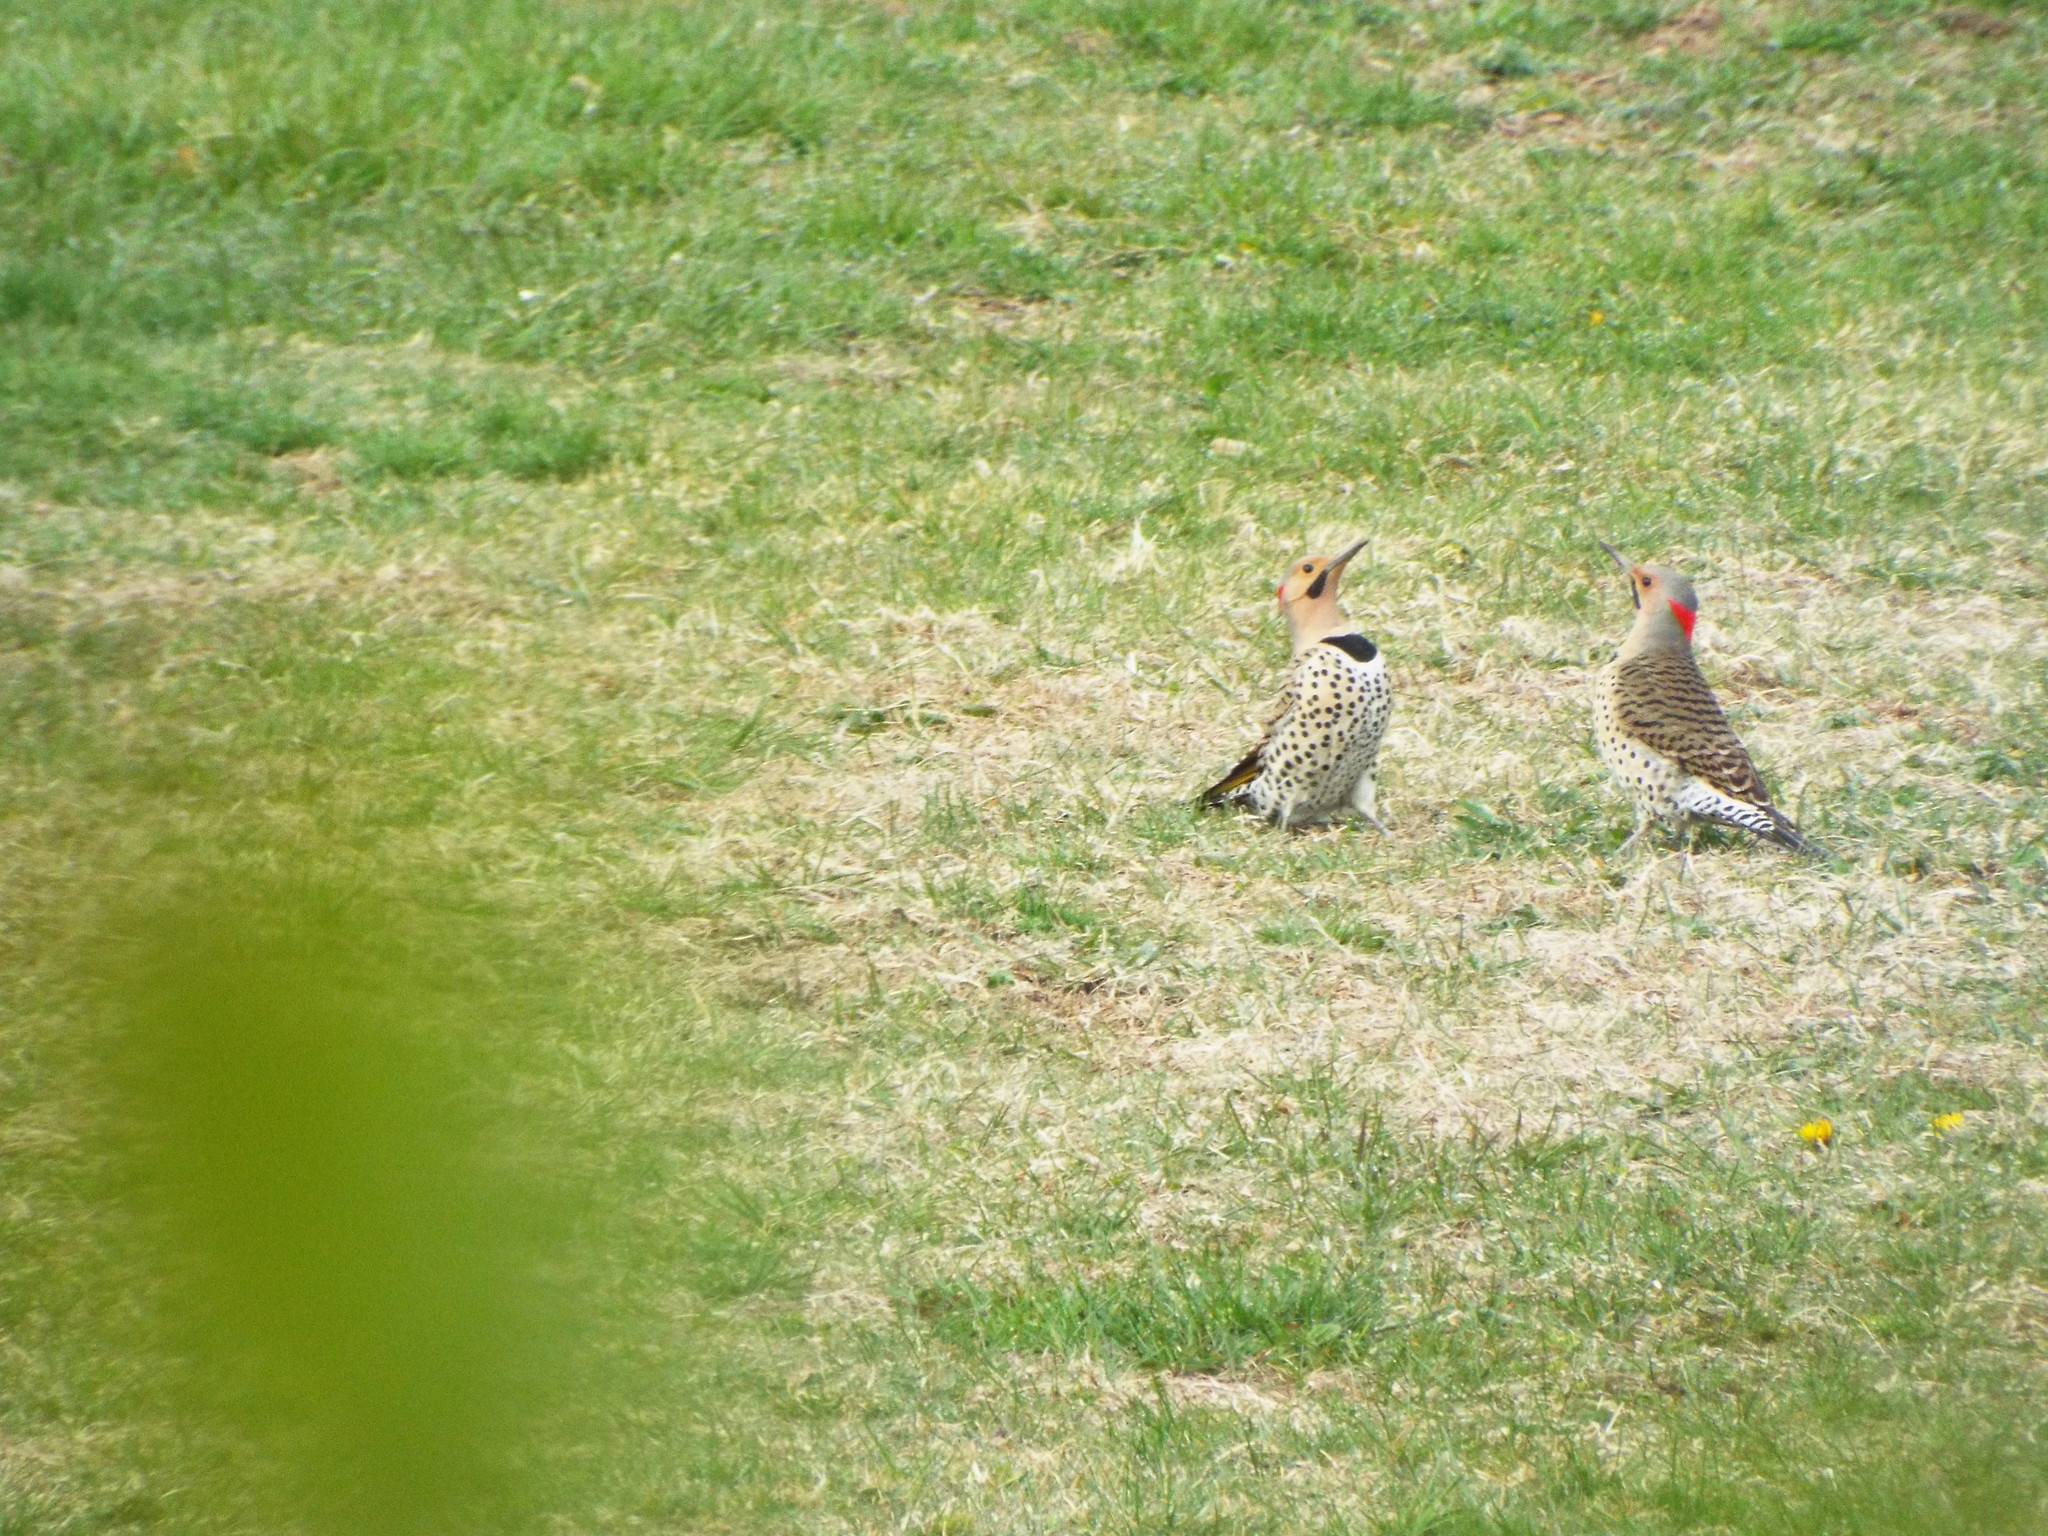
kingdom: Animalia
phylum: Chordata
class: Aves
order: Piciformes
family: Picidae
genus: Colaptes
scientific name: Colaptes auratus
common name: Northern flicker
